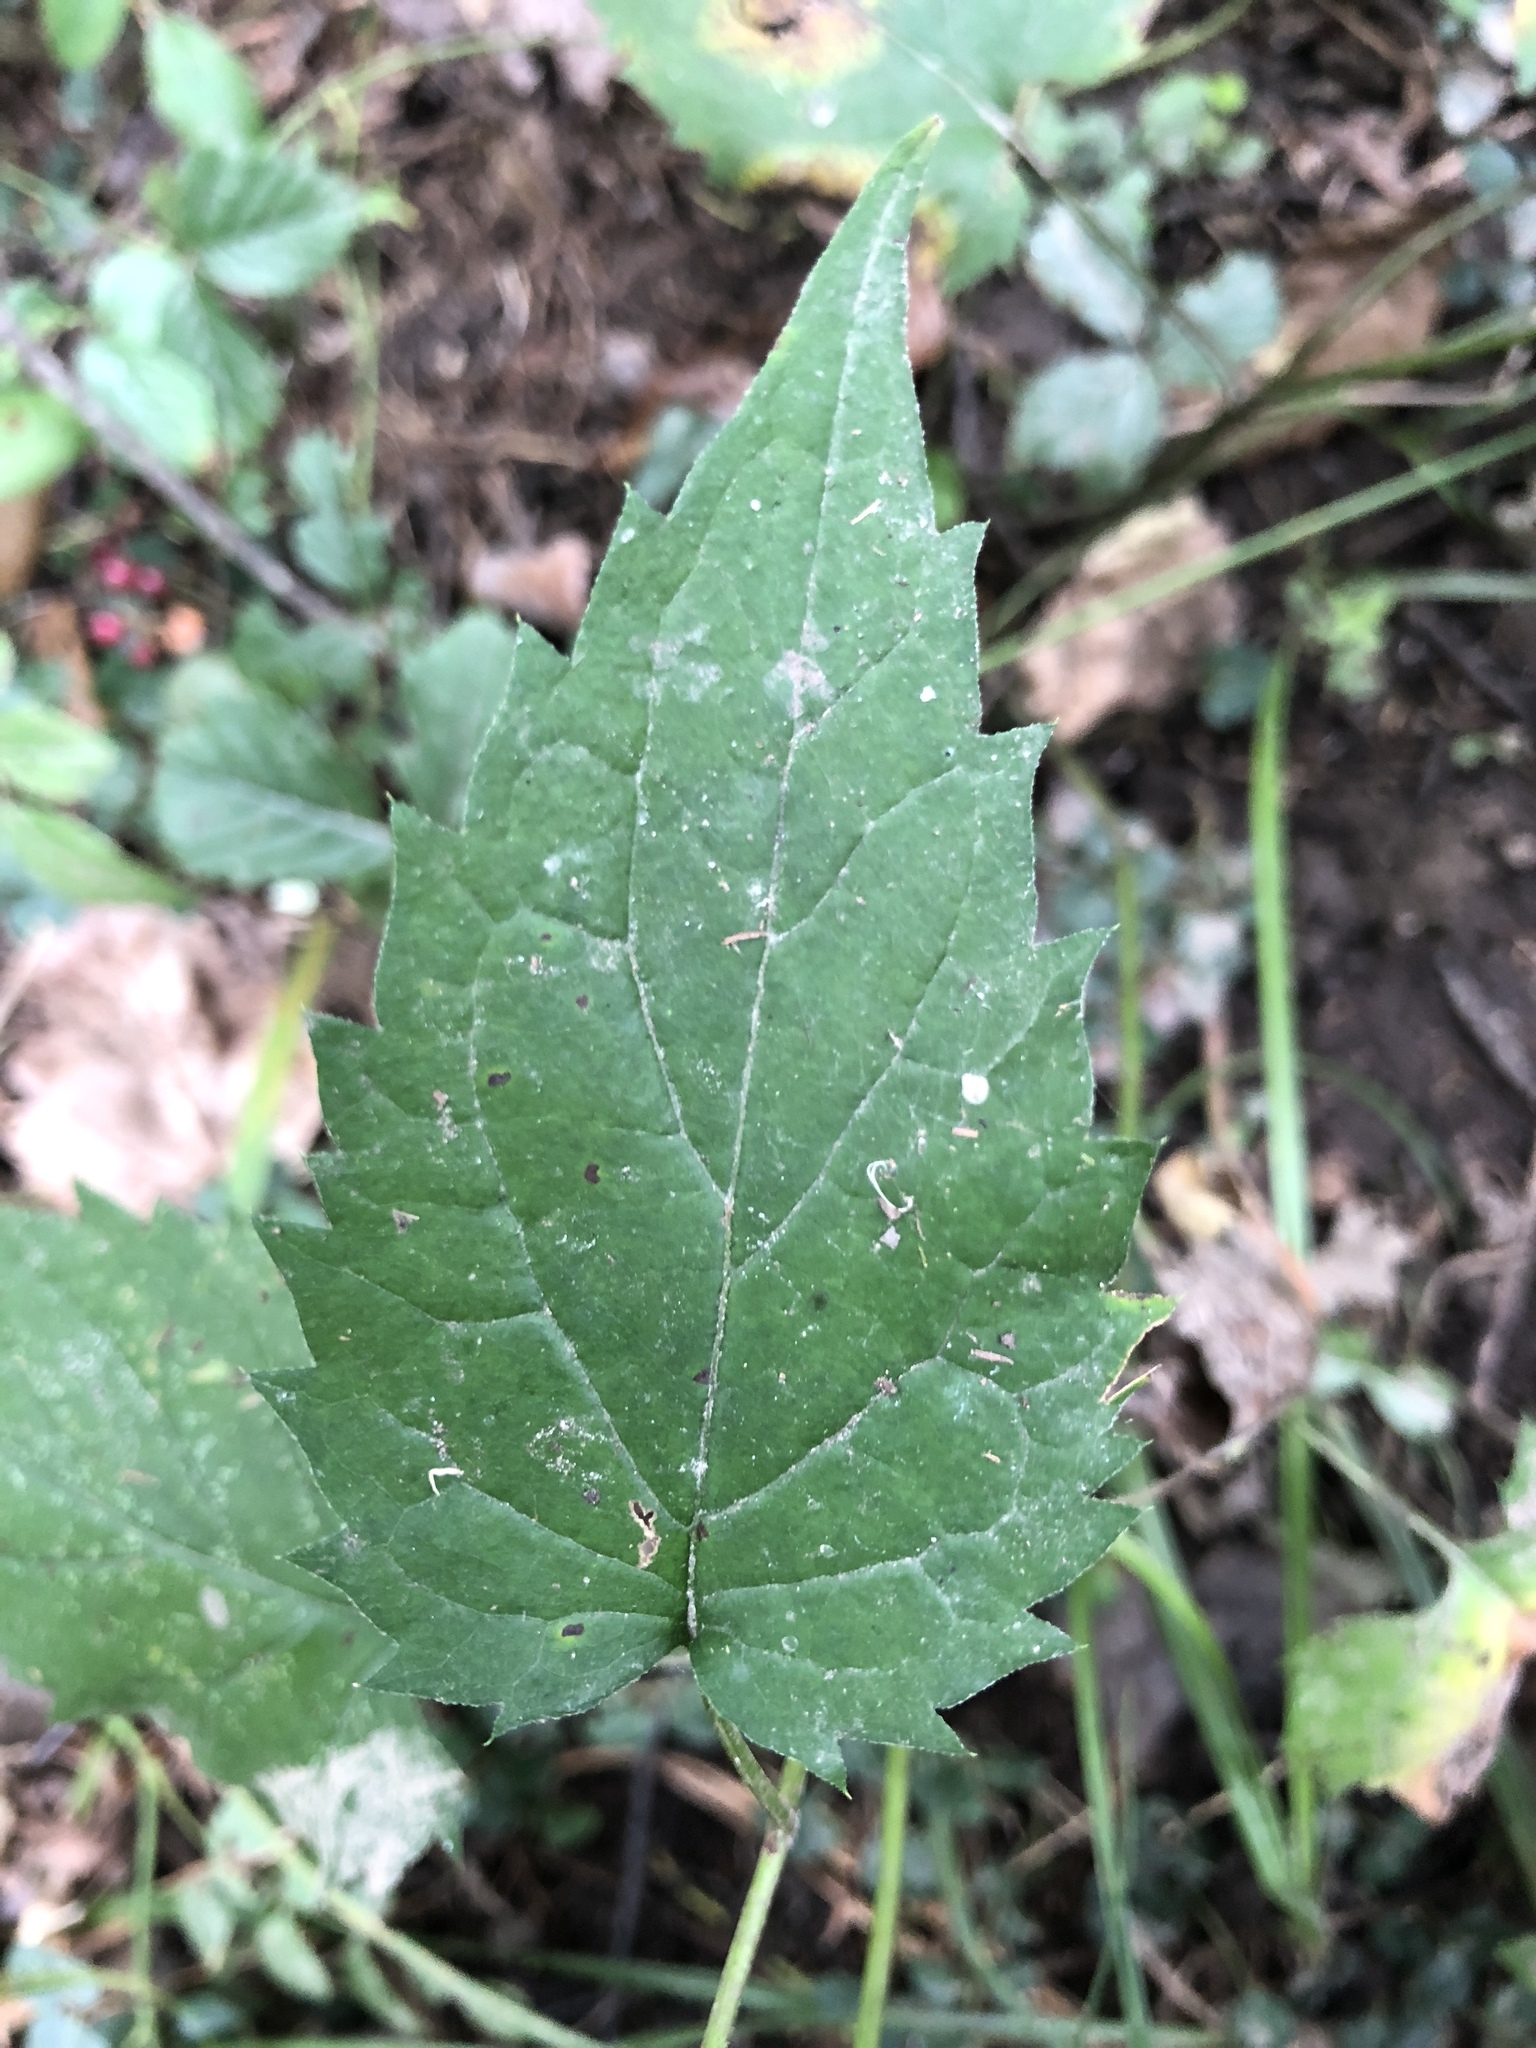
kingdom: Plantae
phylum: Tracheophyta
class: Magnoliopsida
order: Asterales
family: Asteraceae
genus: Eurybia
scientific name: Eurybia divaricata
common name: White wood aster
